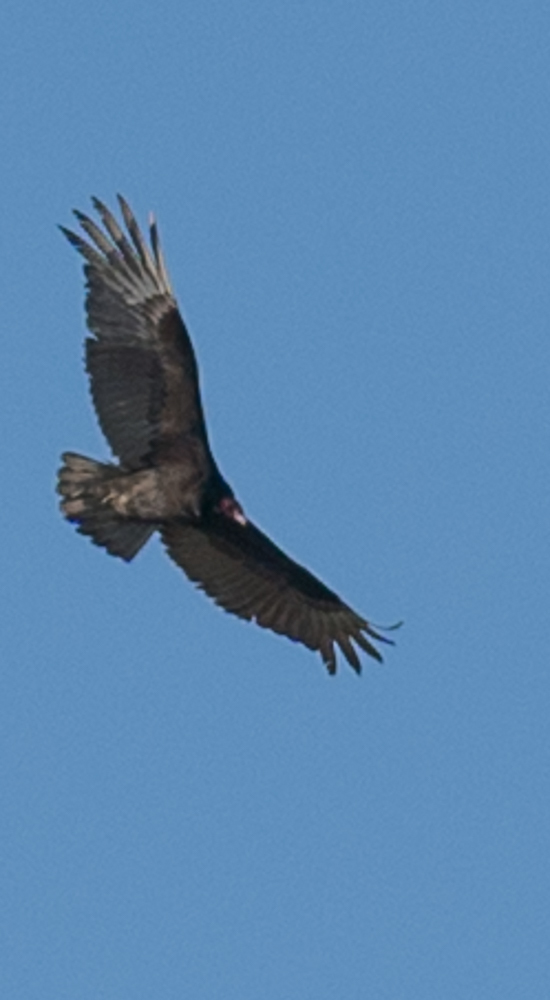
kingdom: Animalia
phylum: Chordata
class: Aves
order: Accipitriformes
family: Cathartidae
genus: Cathartes
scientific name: Cathartes aura
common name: Turkey vulture
